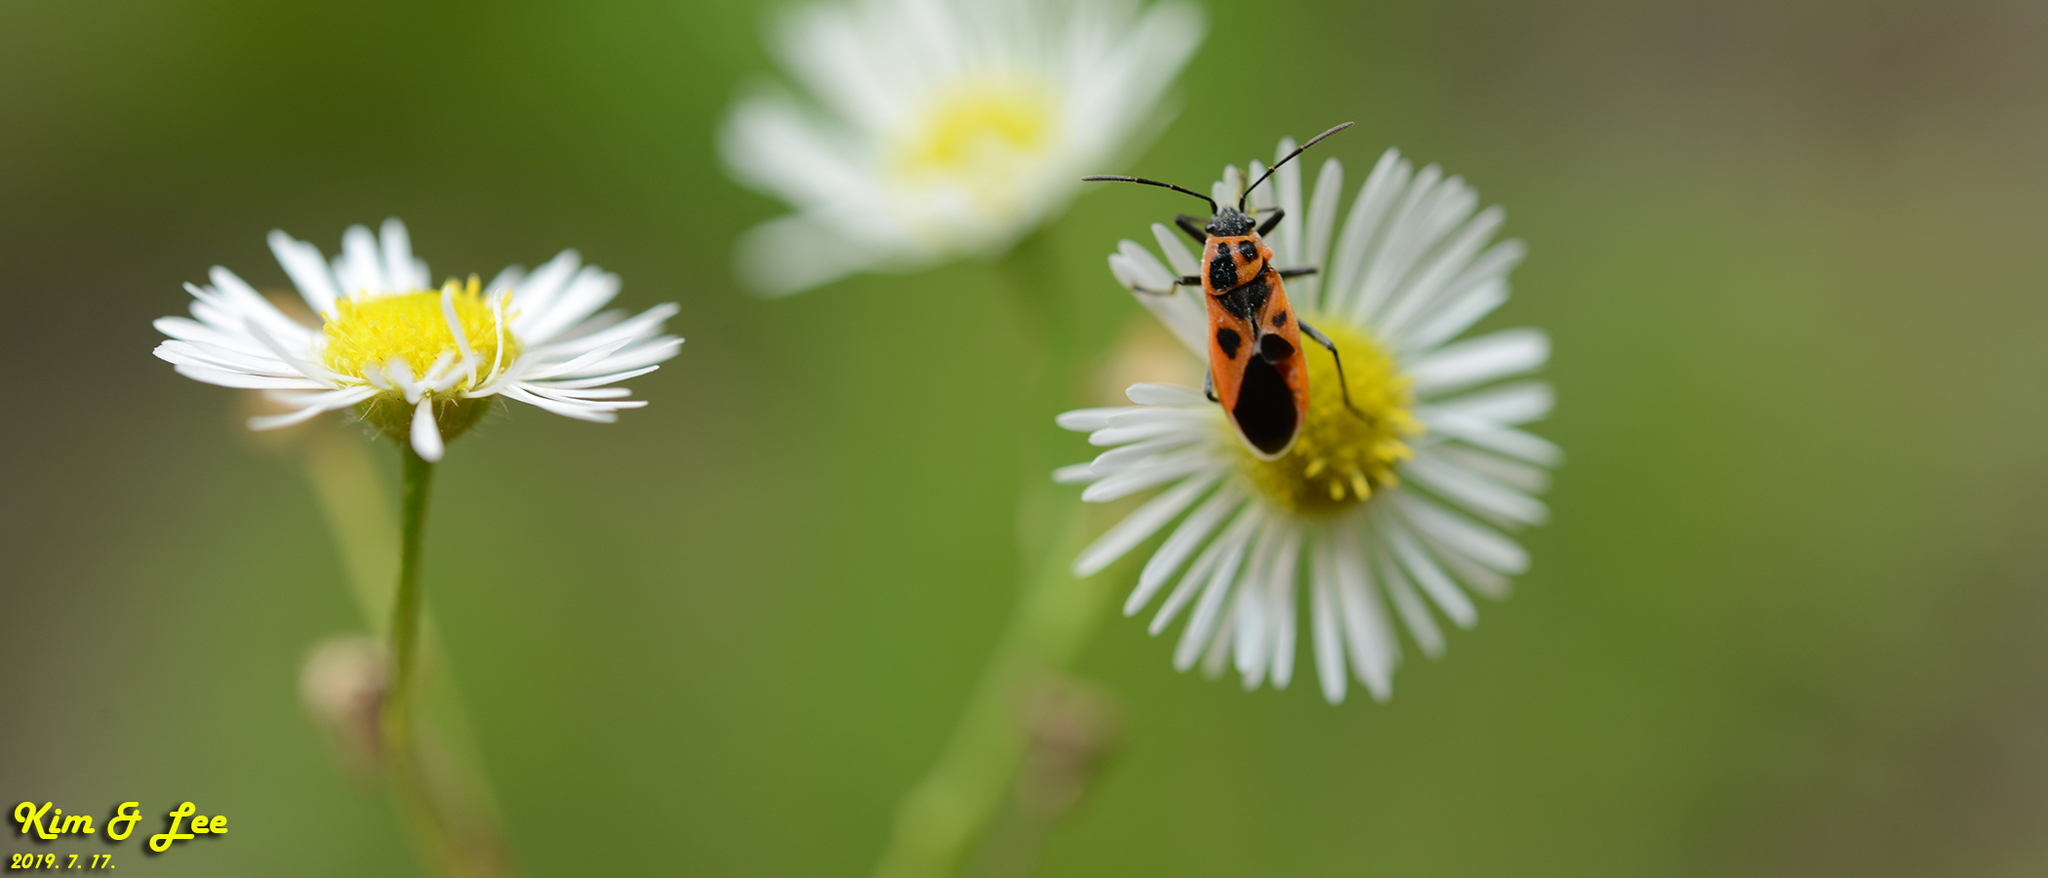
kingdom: Animalia
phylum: Arthropoda
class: Insecta
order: Hemiptera
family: Lygaeidae
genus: Tropidothorax
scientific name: Tropidothorax cruciger
